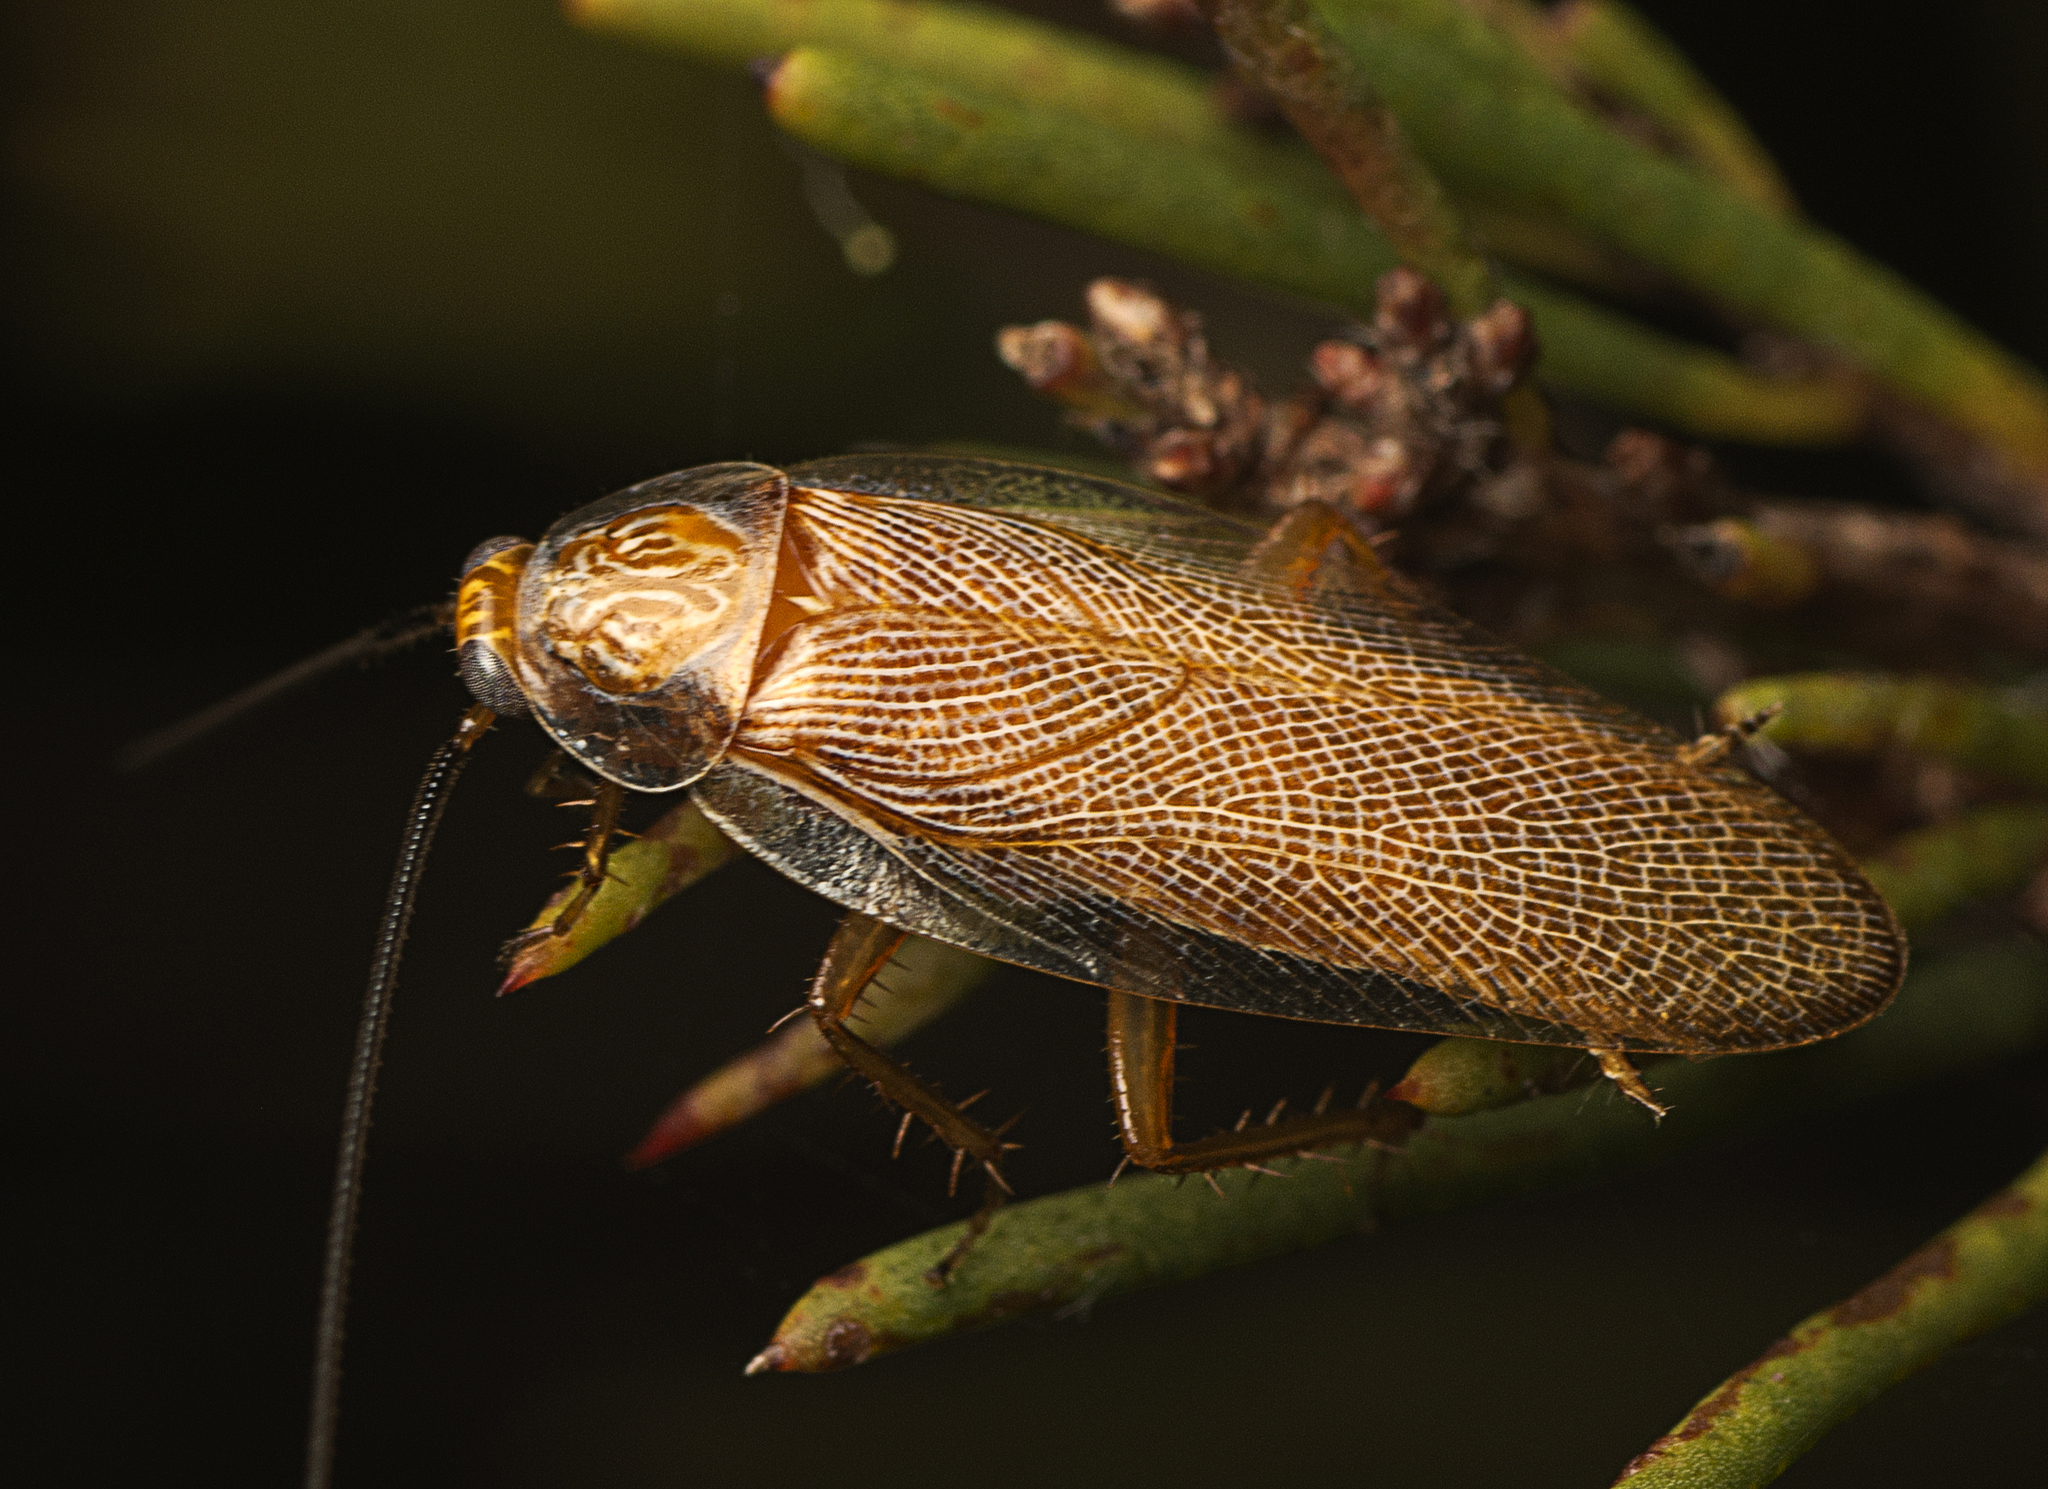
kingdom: Animalia
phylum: Arthropoda
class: Insecta
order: Blattodea
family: Ectobiidae
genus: Balta
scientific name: Balta verticalis
